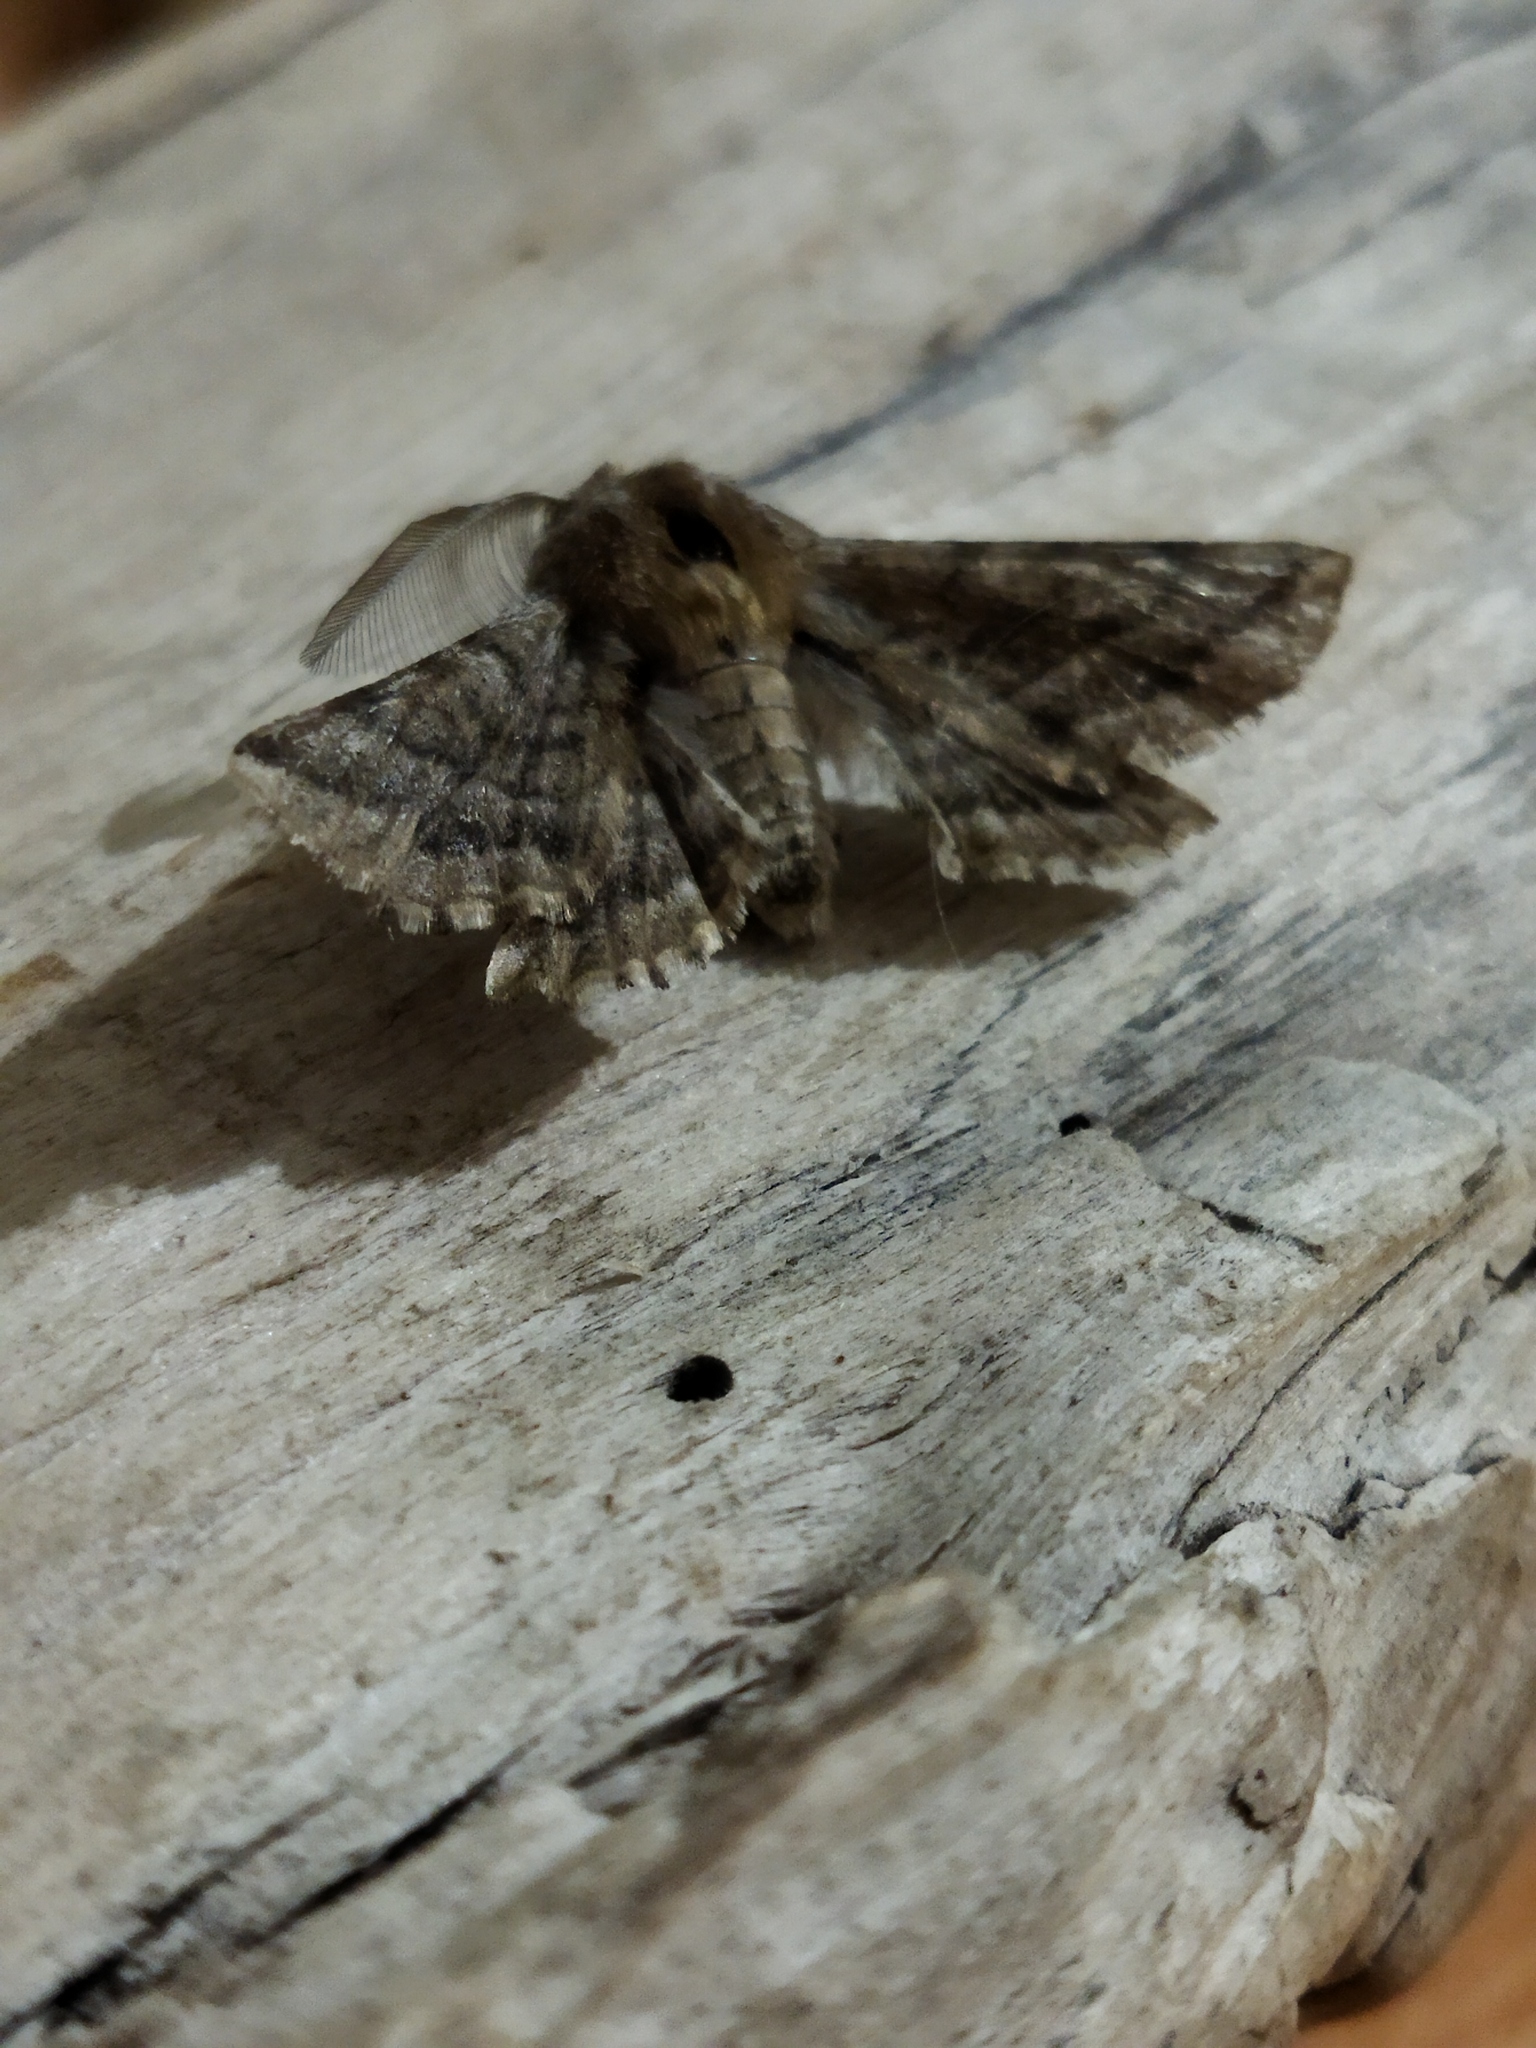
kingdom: Animalia
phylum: Arthropoda
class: Insecta
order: Lepidoptera
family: Geometridae
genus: Apochima
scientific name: Apochima flabellaria
